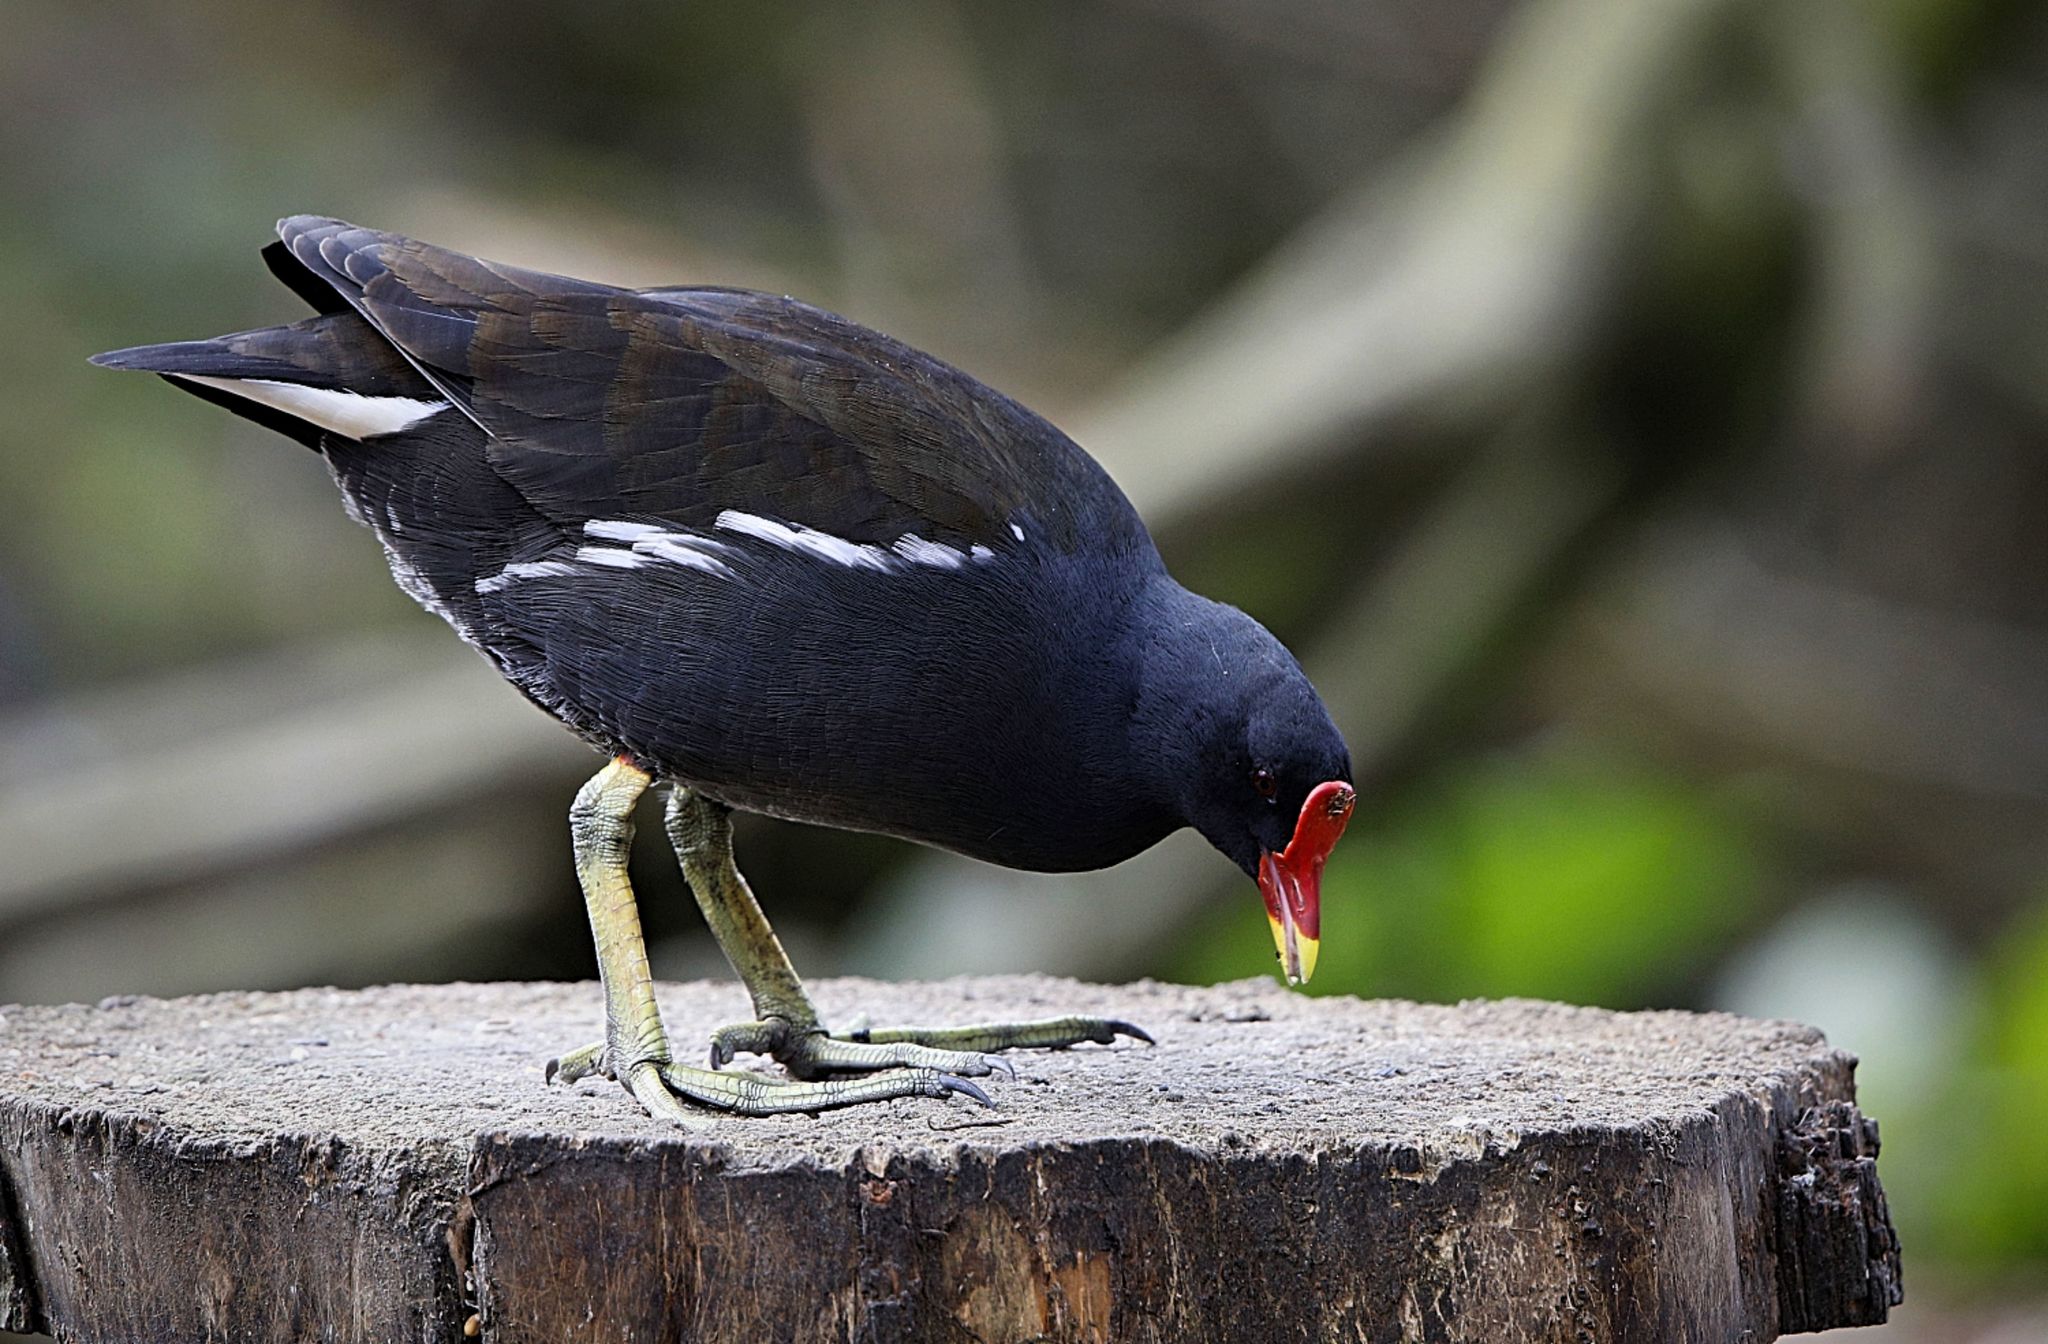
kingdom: Animalia
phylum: Chordata
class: Aves
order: Gruiformes
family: Rallidae
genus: Gallinula
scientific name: Gallinula chloropus
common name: Common moorhen
